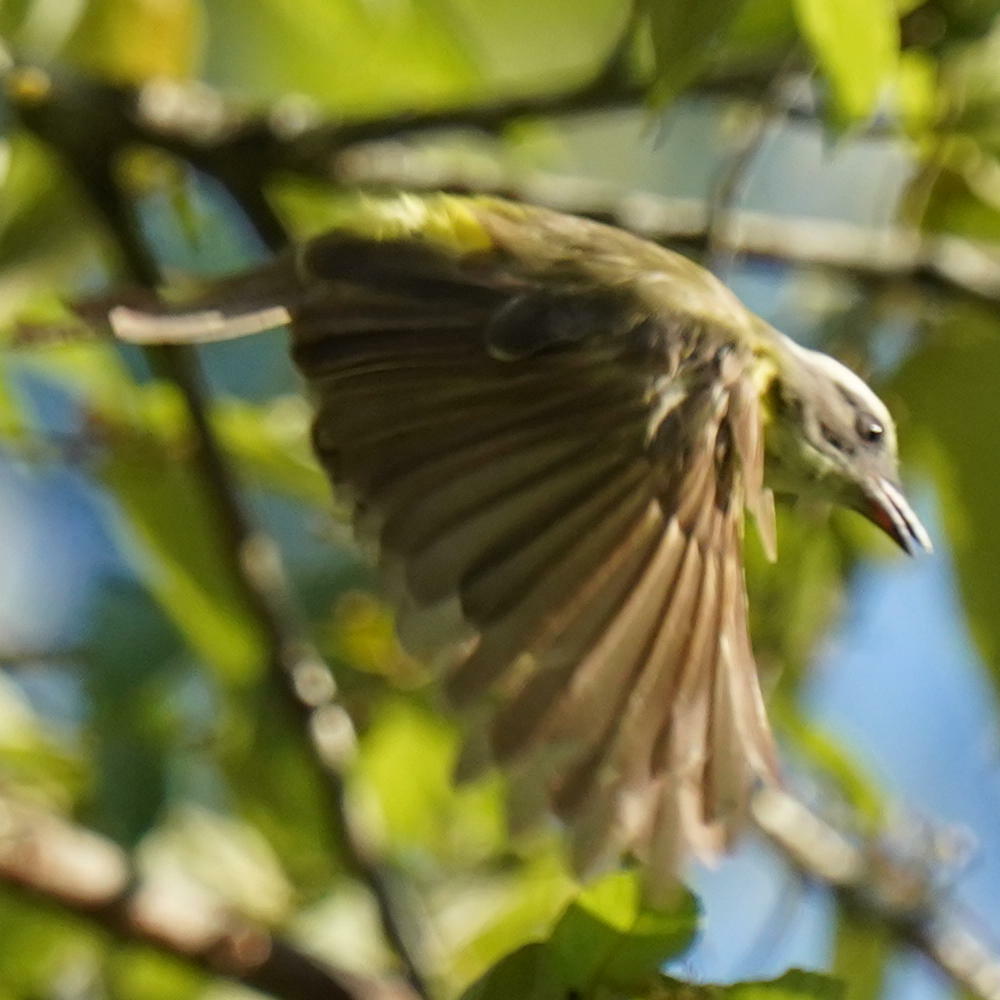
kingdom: Animalia
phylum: Chordata
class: Aves
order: Passeriformes
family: Tyrannidae
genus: Myiozetetes
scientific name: Myiozetetes similis
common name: Social flycatcher
